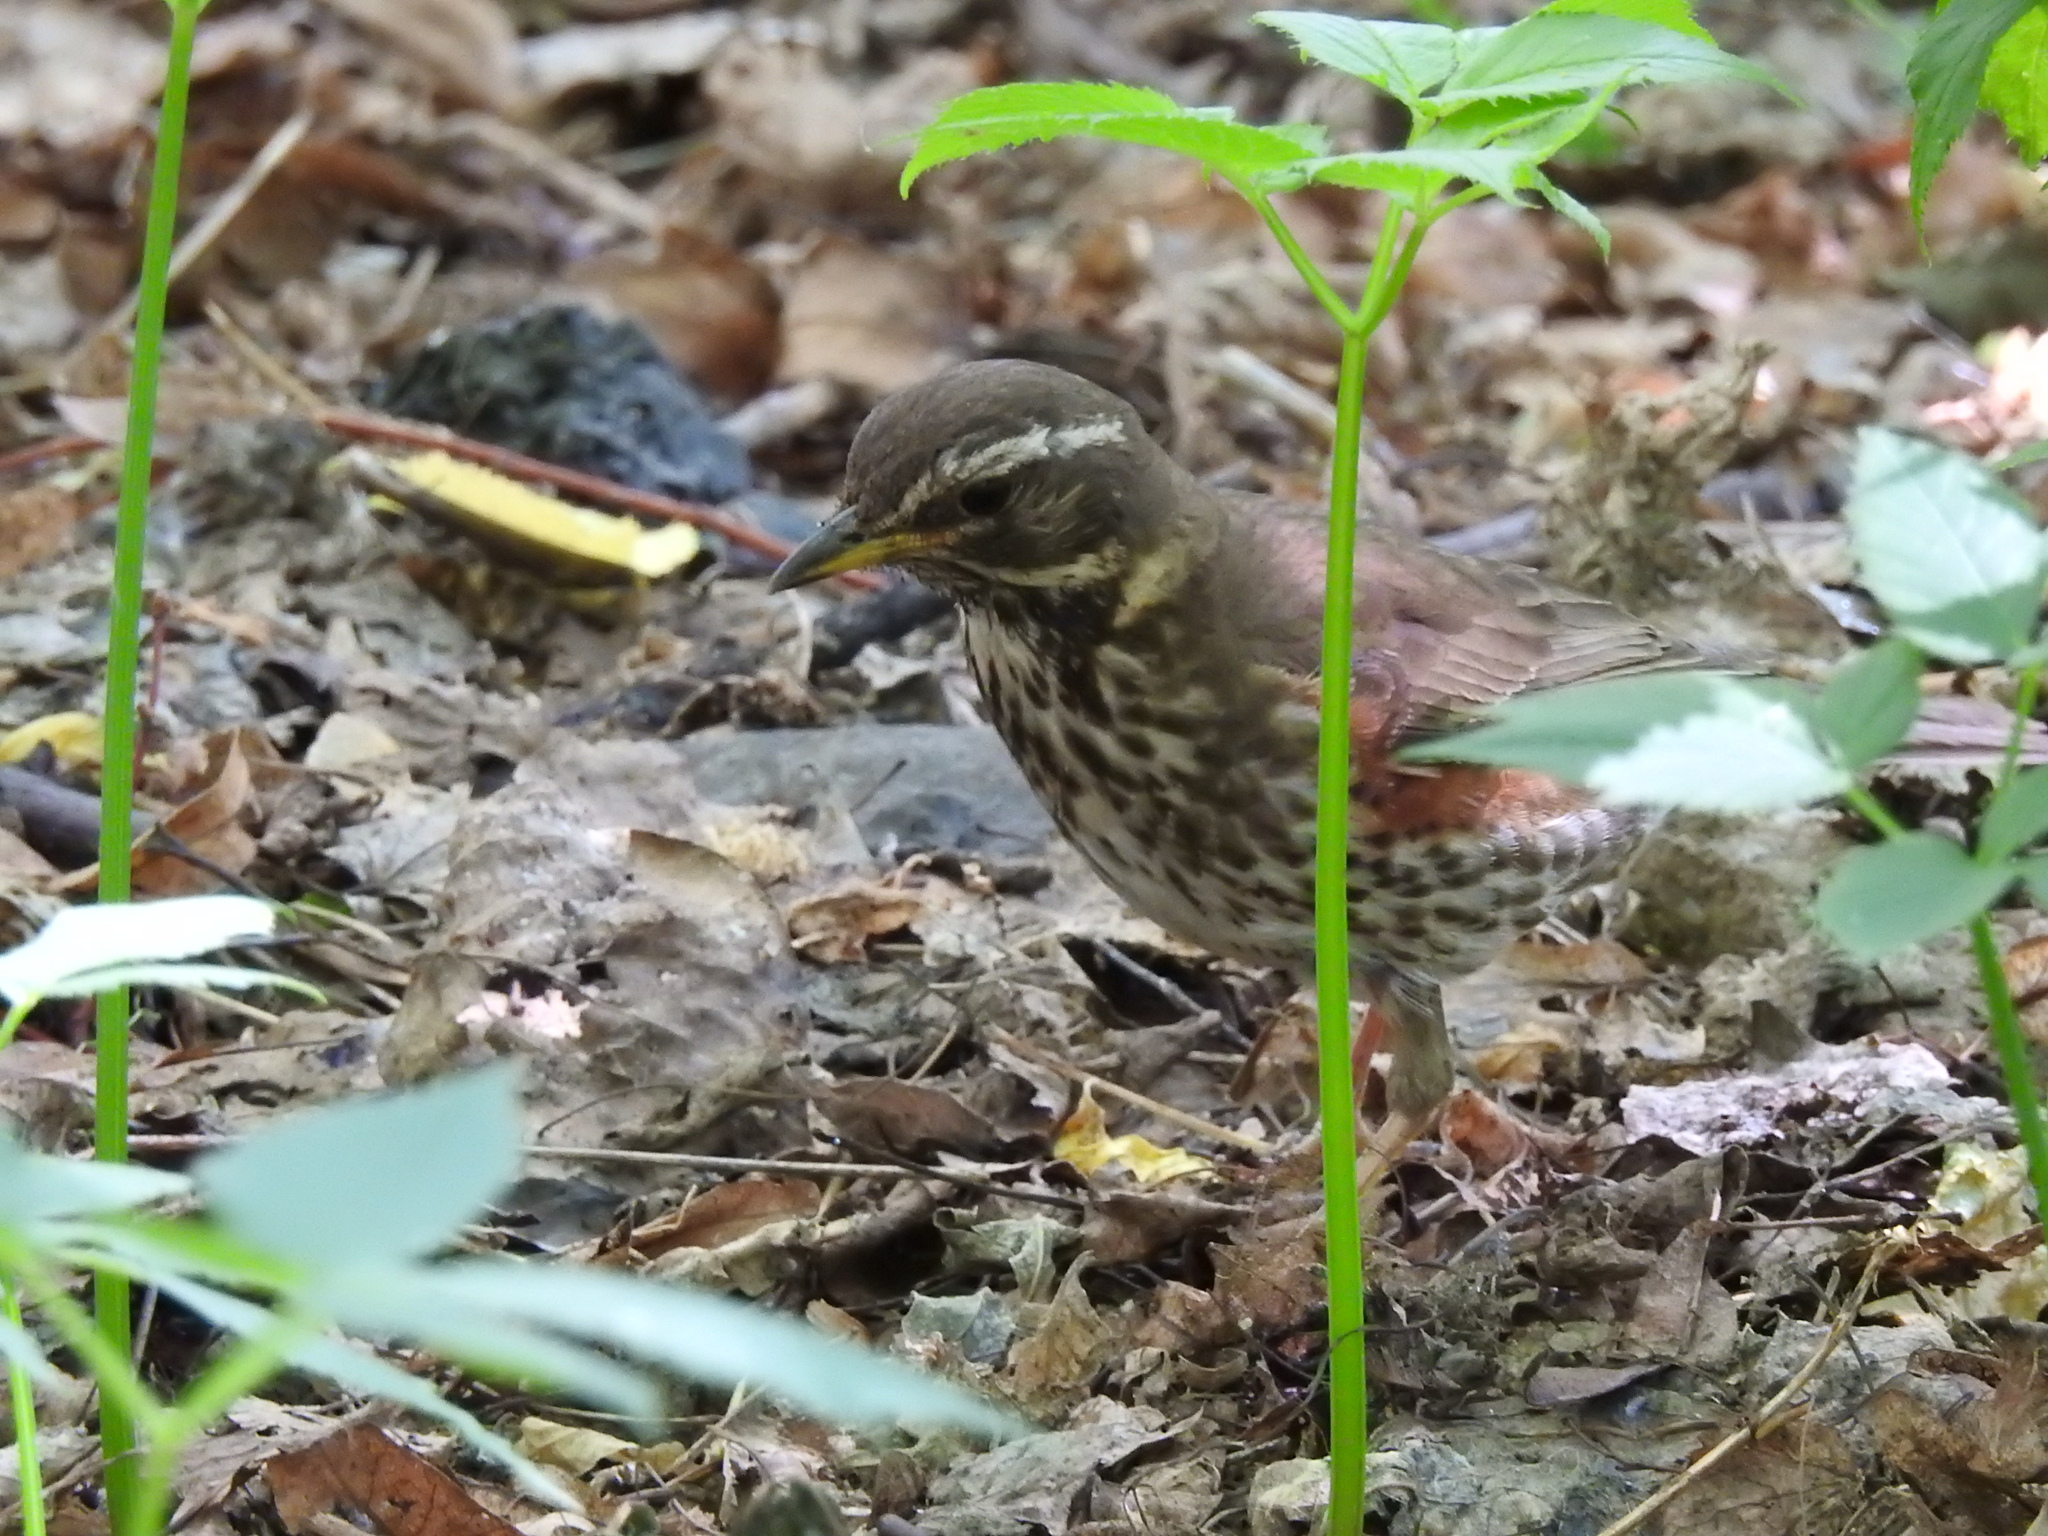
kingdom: Animalia
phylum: Chordata
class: Aves
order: Passeriformes
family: Turdidae
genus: Turdus
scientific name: Turdus iliacus
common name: Redwing
